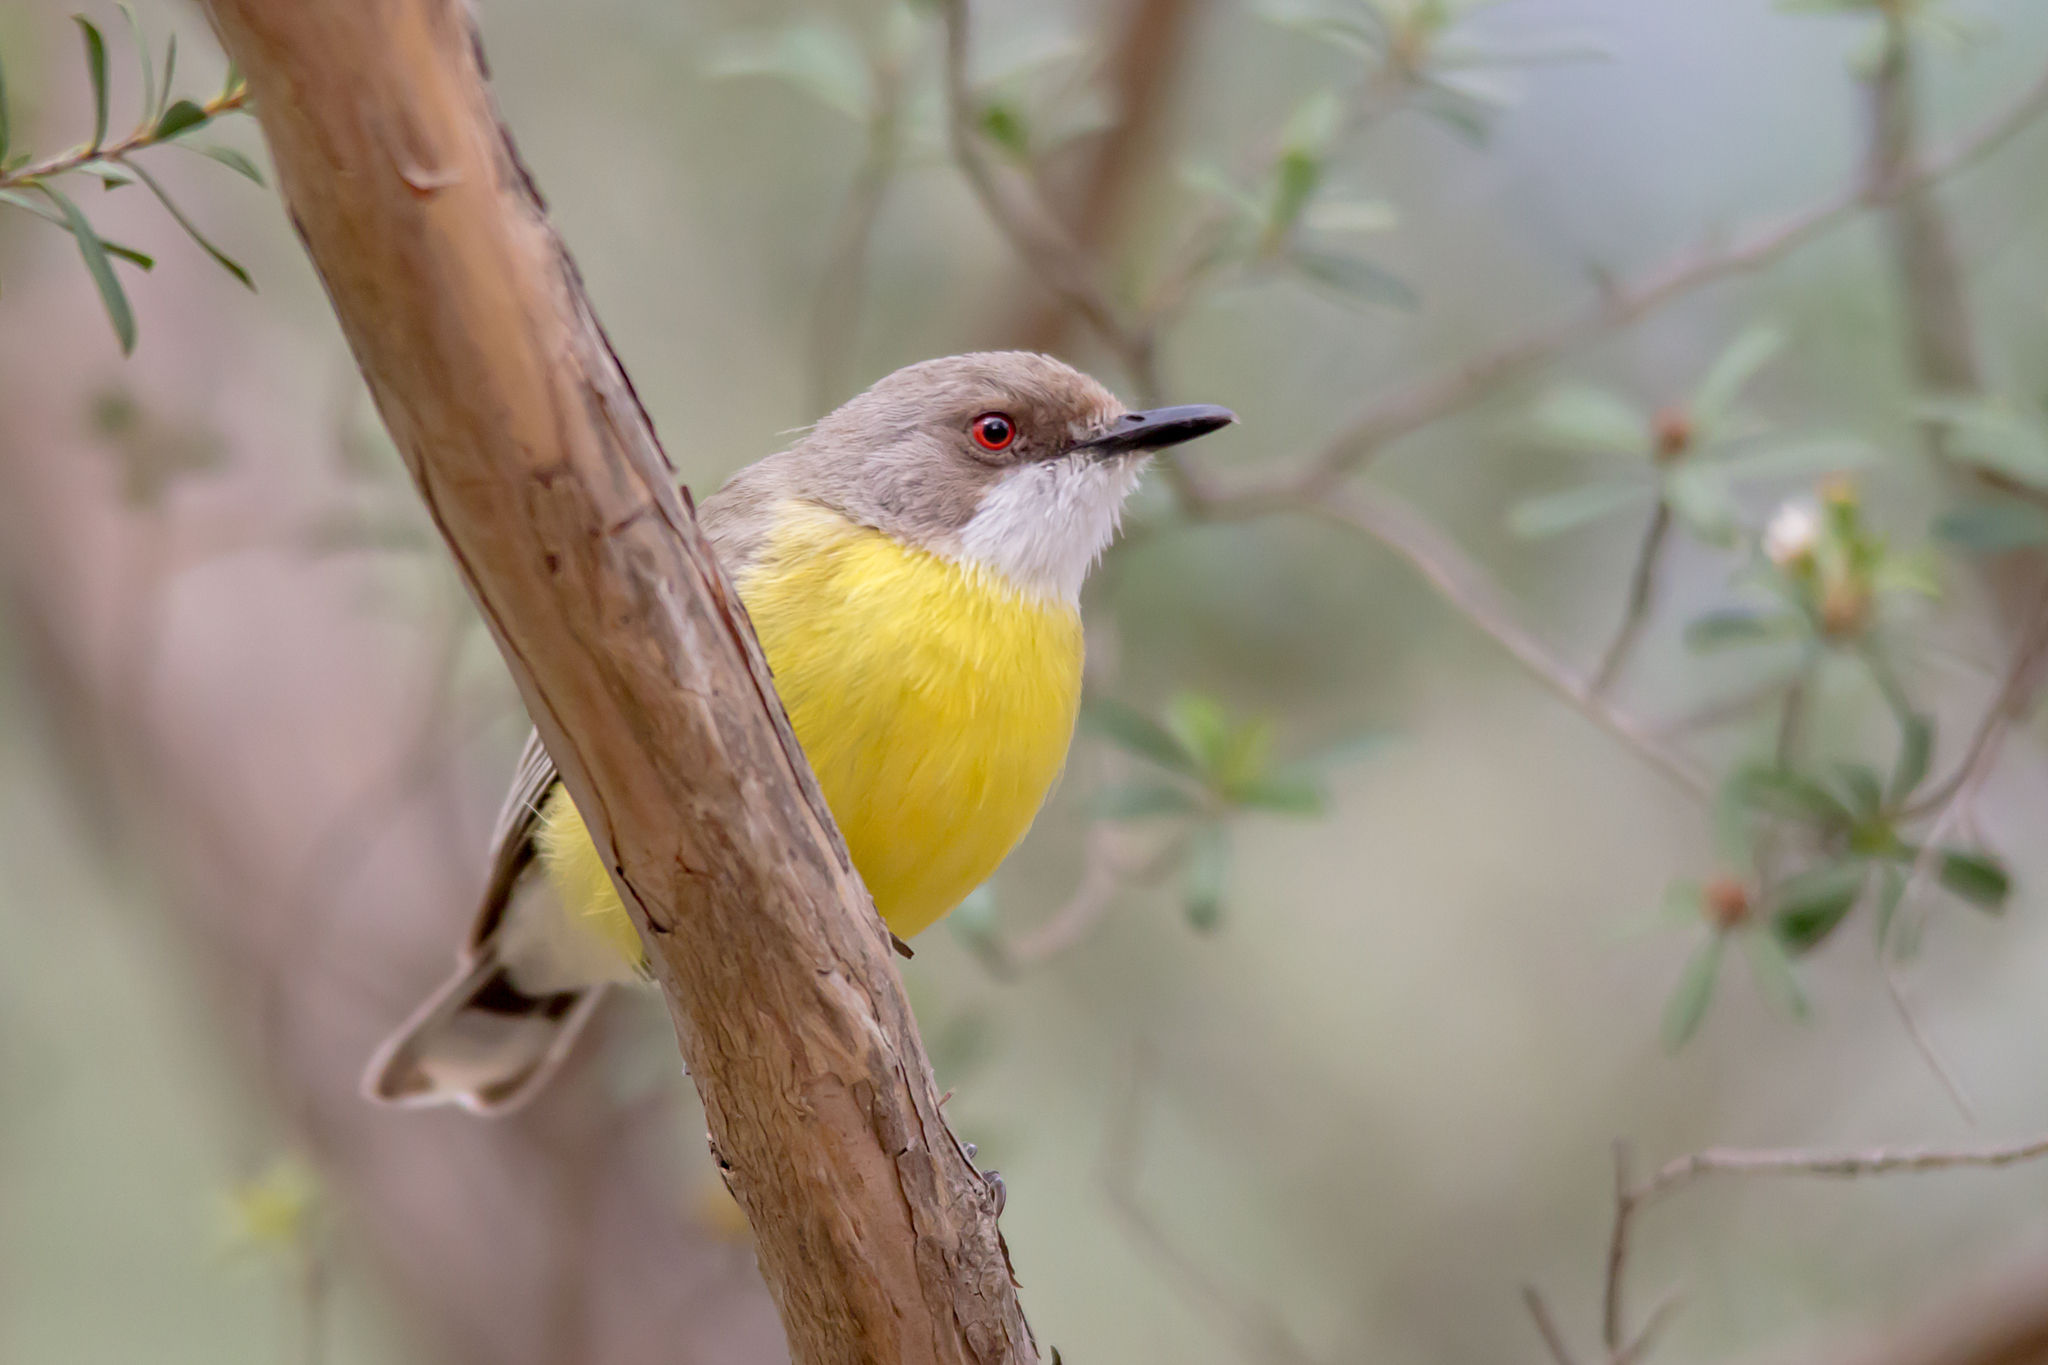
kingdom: Animalia
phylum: Chordata
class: Aves
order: Passeriformes
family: Acanthizidae
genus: Gerygone
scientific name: Gerygone olivacea
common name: White-throated gerygone
